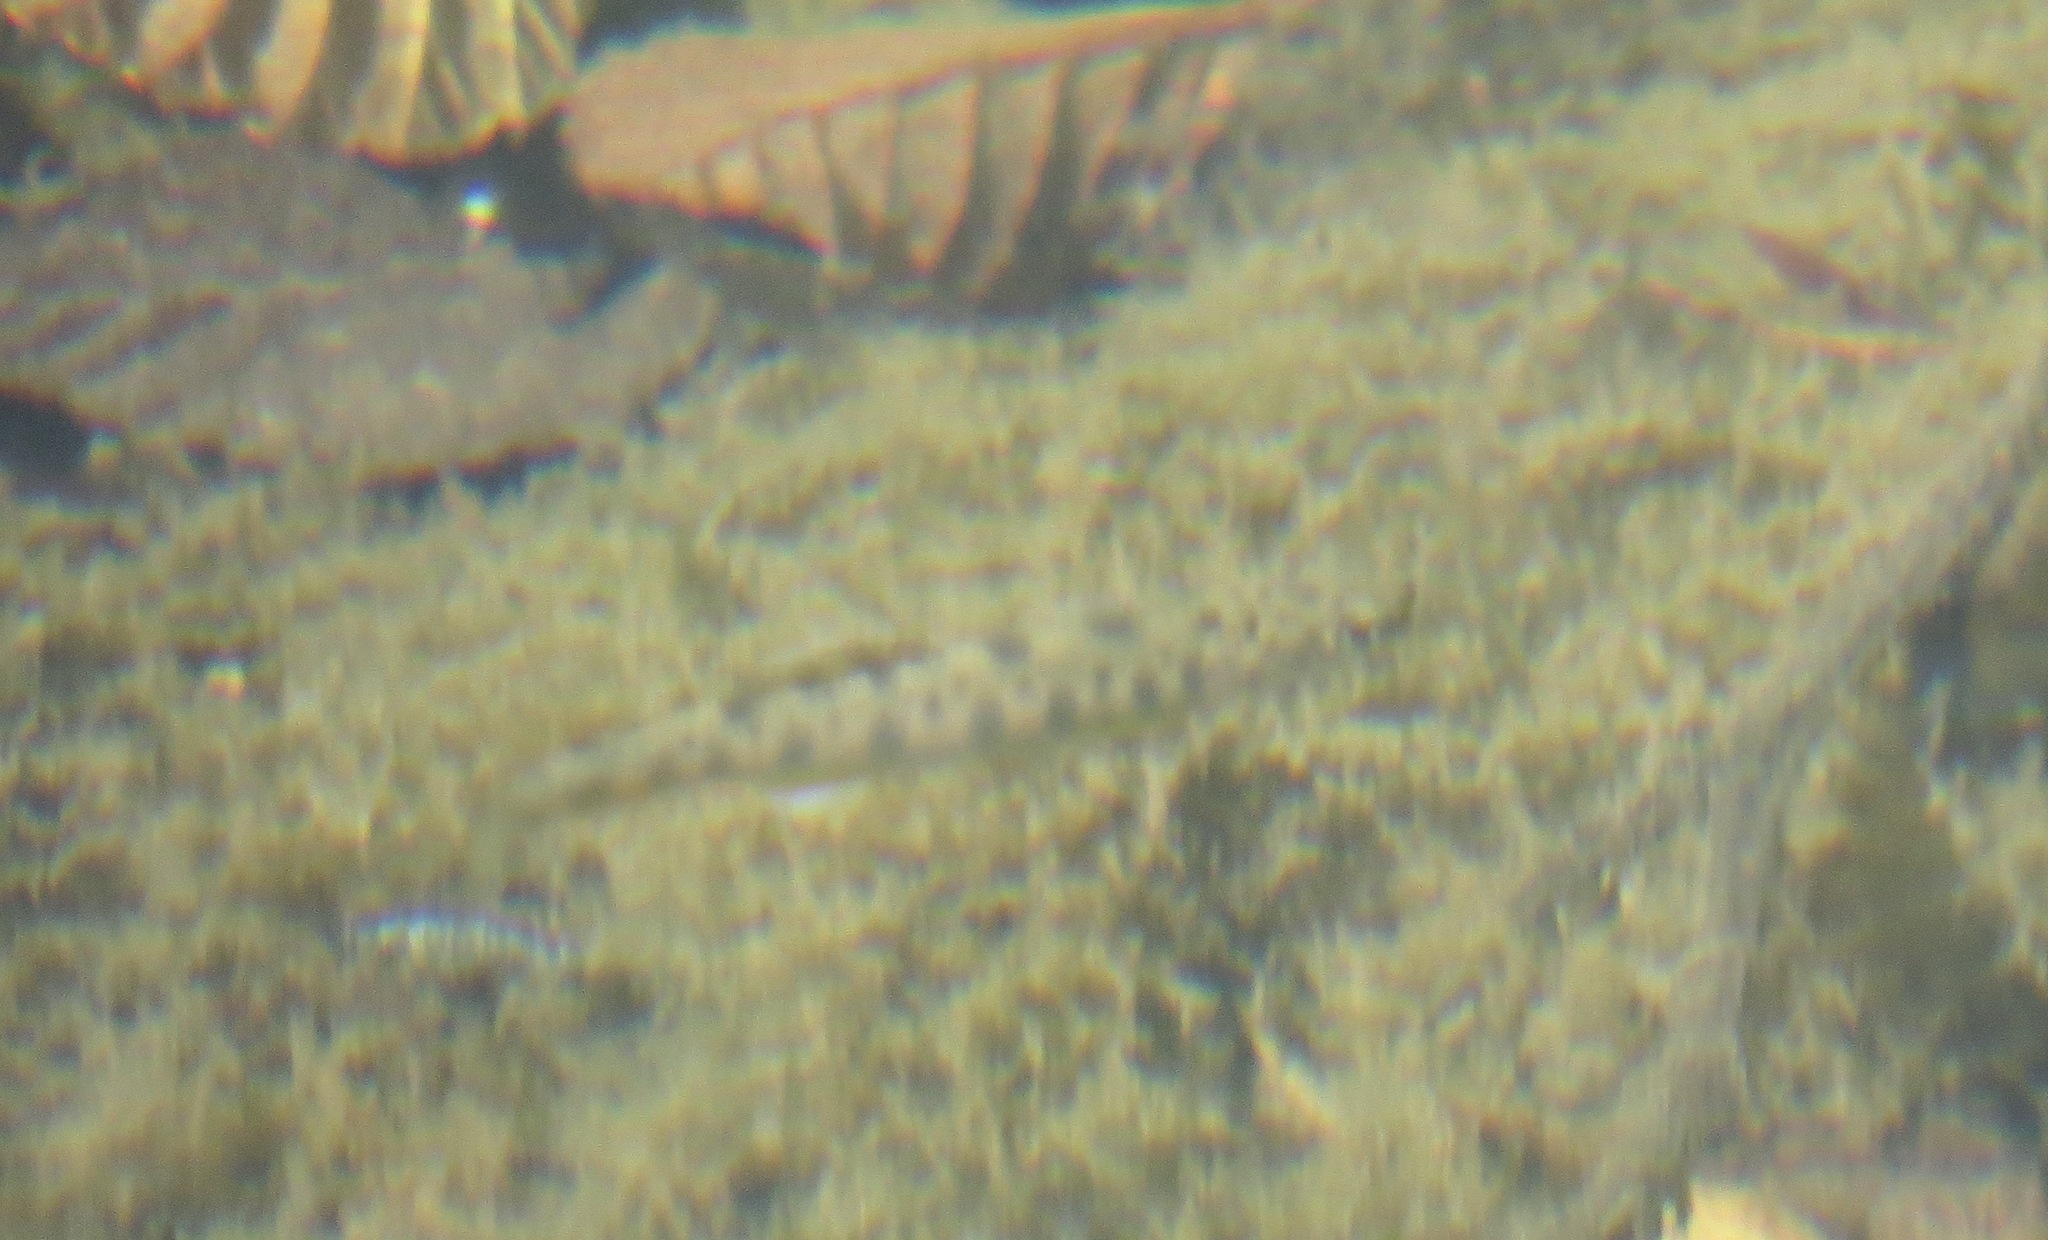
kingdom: Animalia
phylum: Chordata
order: Salmoniformes
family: Salmonidae
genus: Oncorhynchus
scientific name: Oncorhynchus mykiss
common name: Rainbow trout
